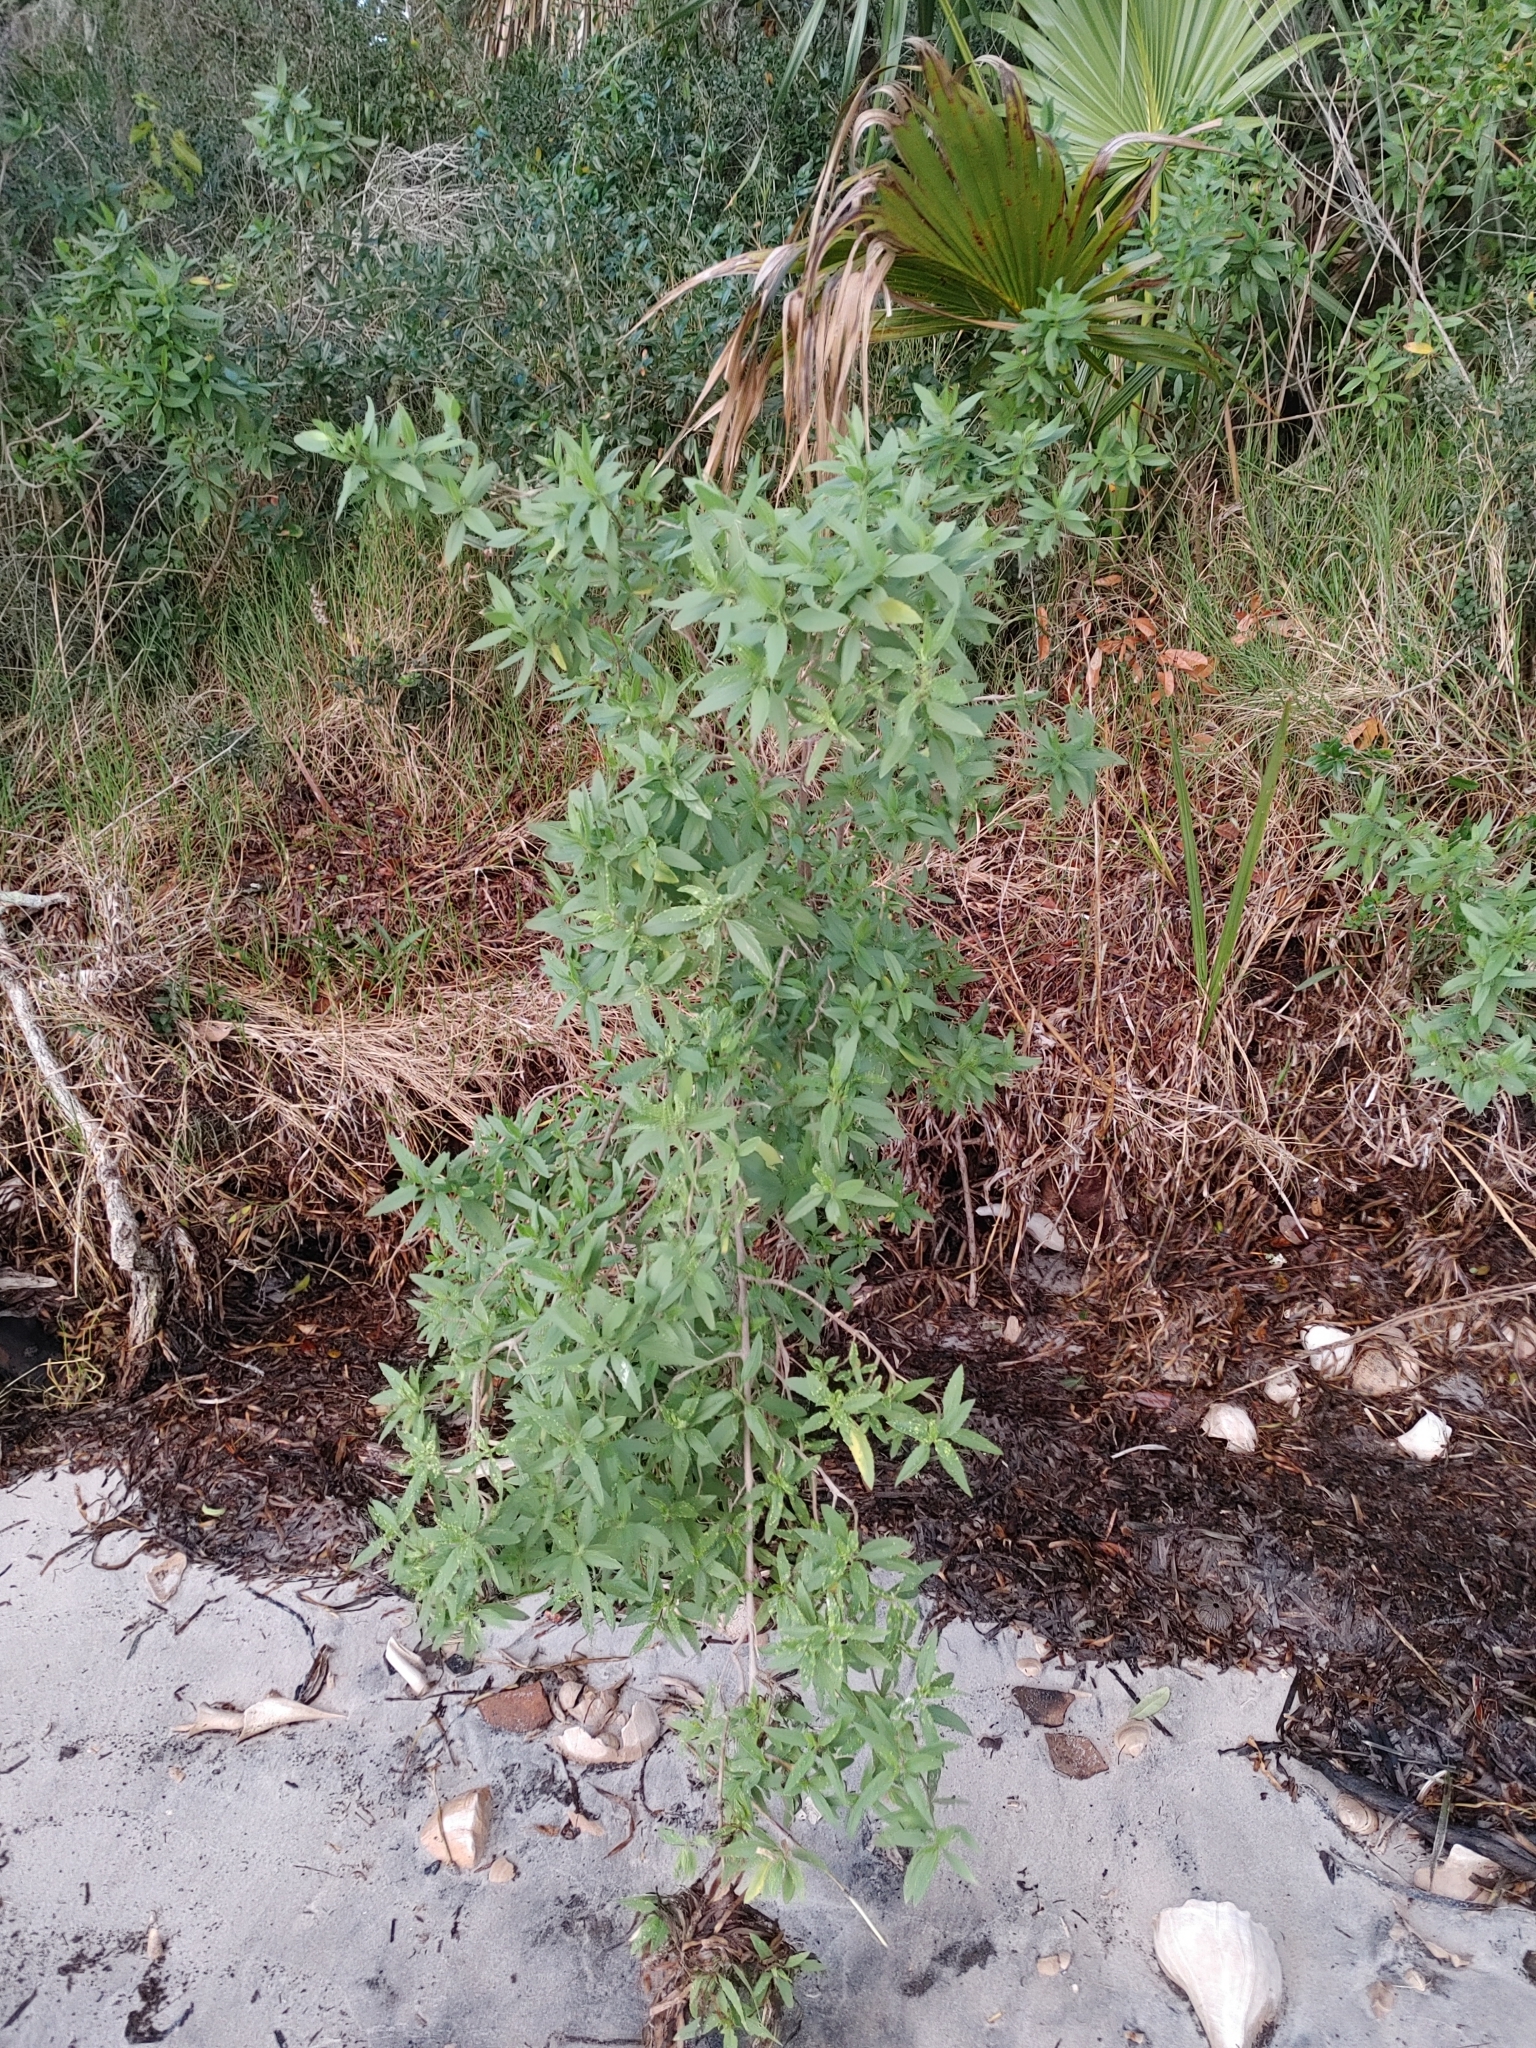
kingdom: Plantae
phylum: Tracheophyta
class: Magnoliopsida
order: Asterales
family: Asteraceae
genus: Iva
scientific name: Iva frutescens
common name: Big-leaved marsh-elder
